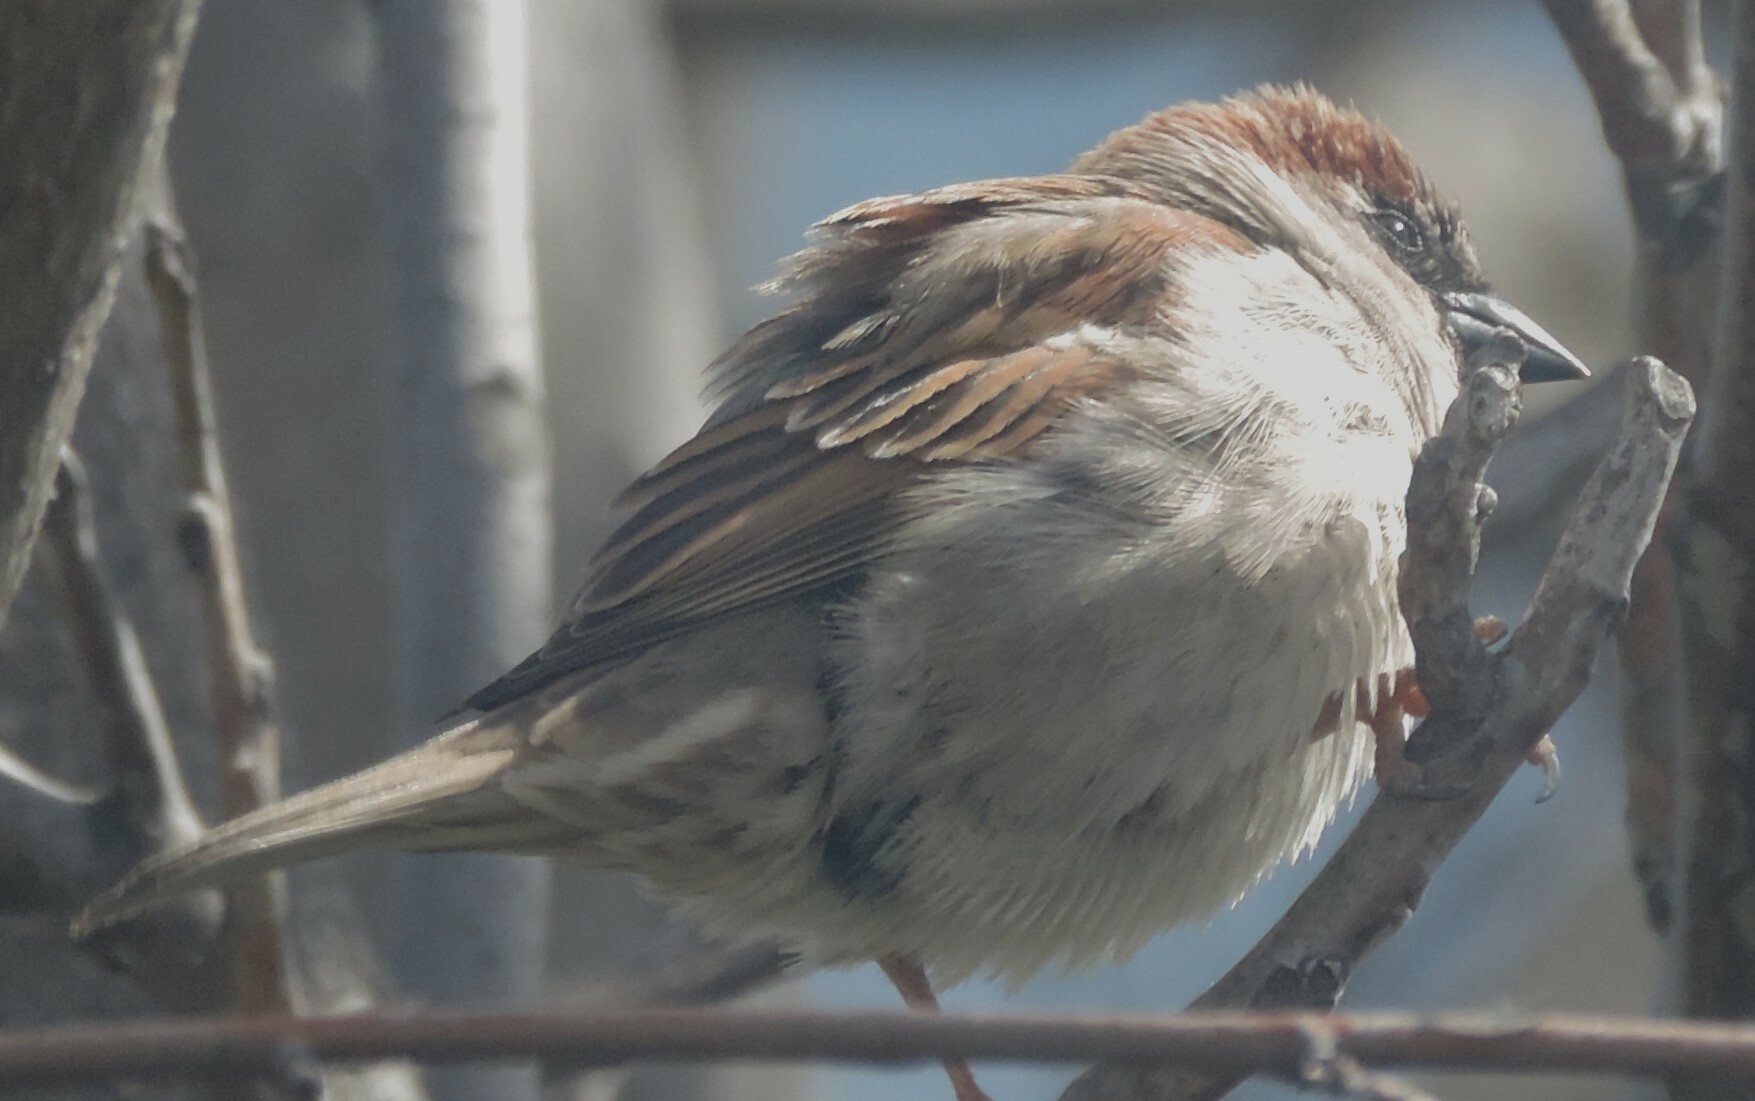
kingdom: Animalia
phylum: Chordata
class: Aves
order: Passeriformes
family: Passeridae
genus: Passer
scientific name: Passer domesticus
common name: House sparrow
